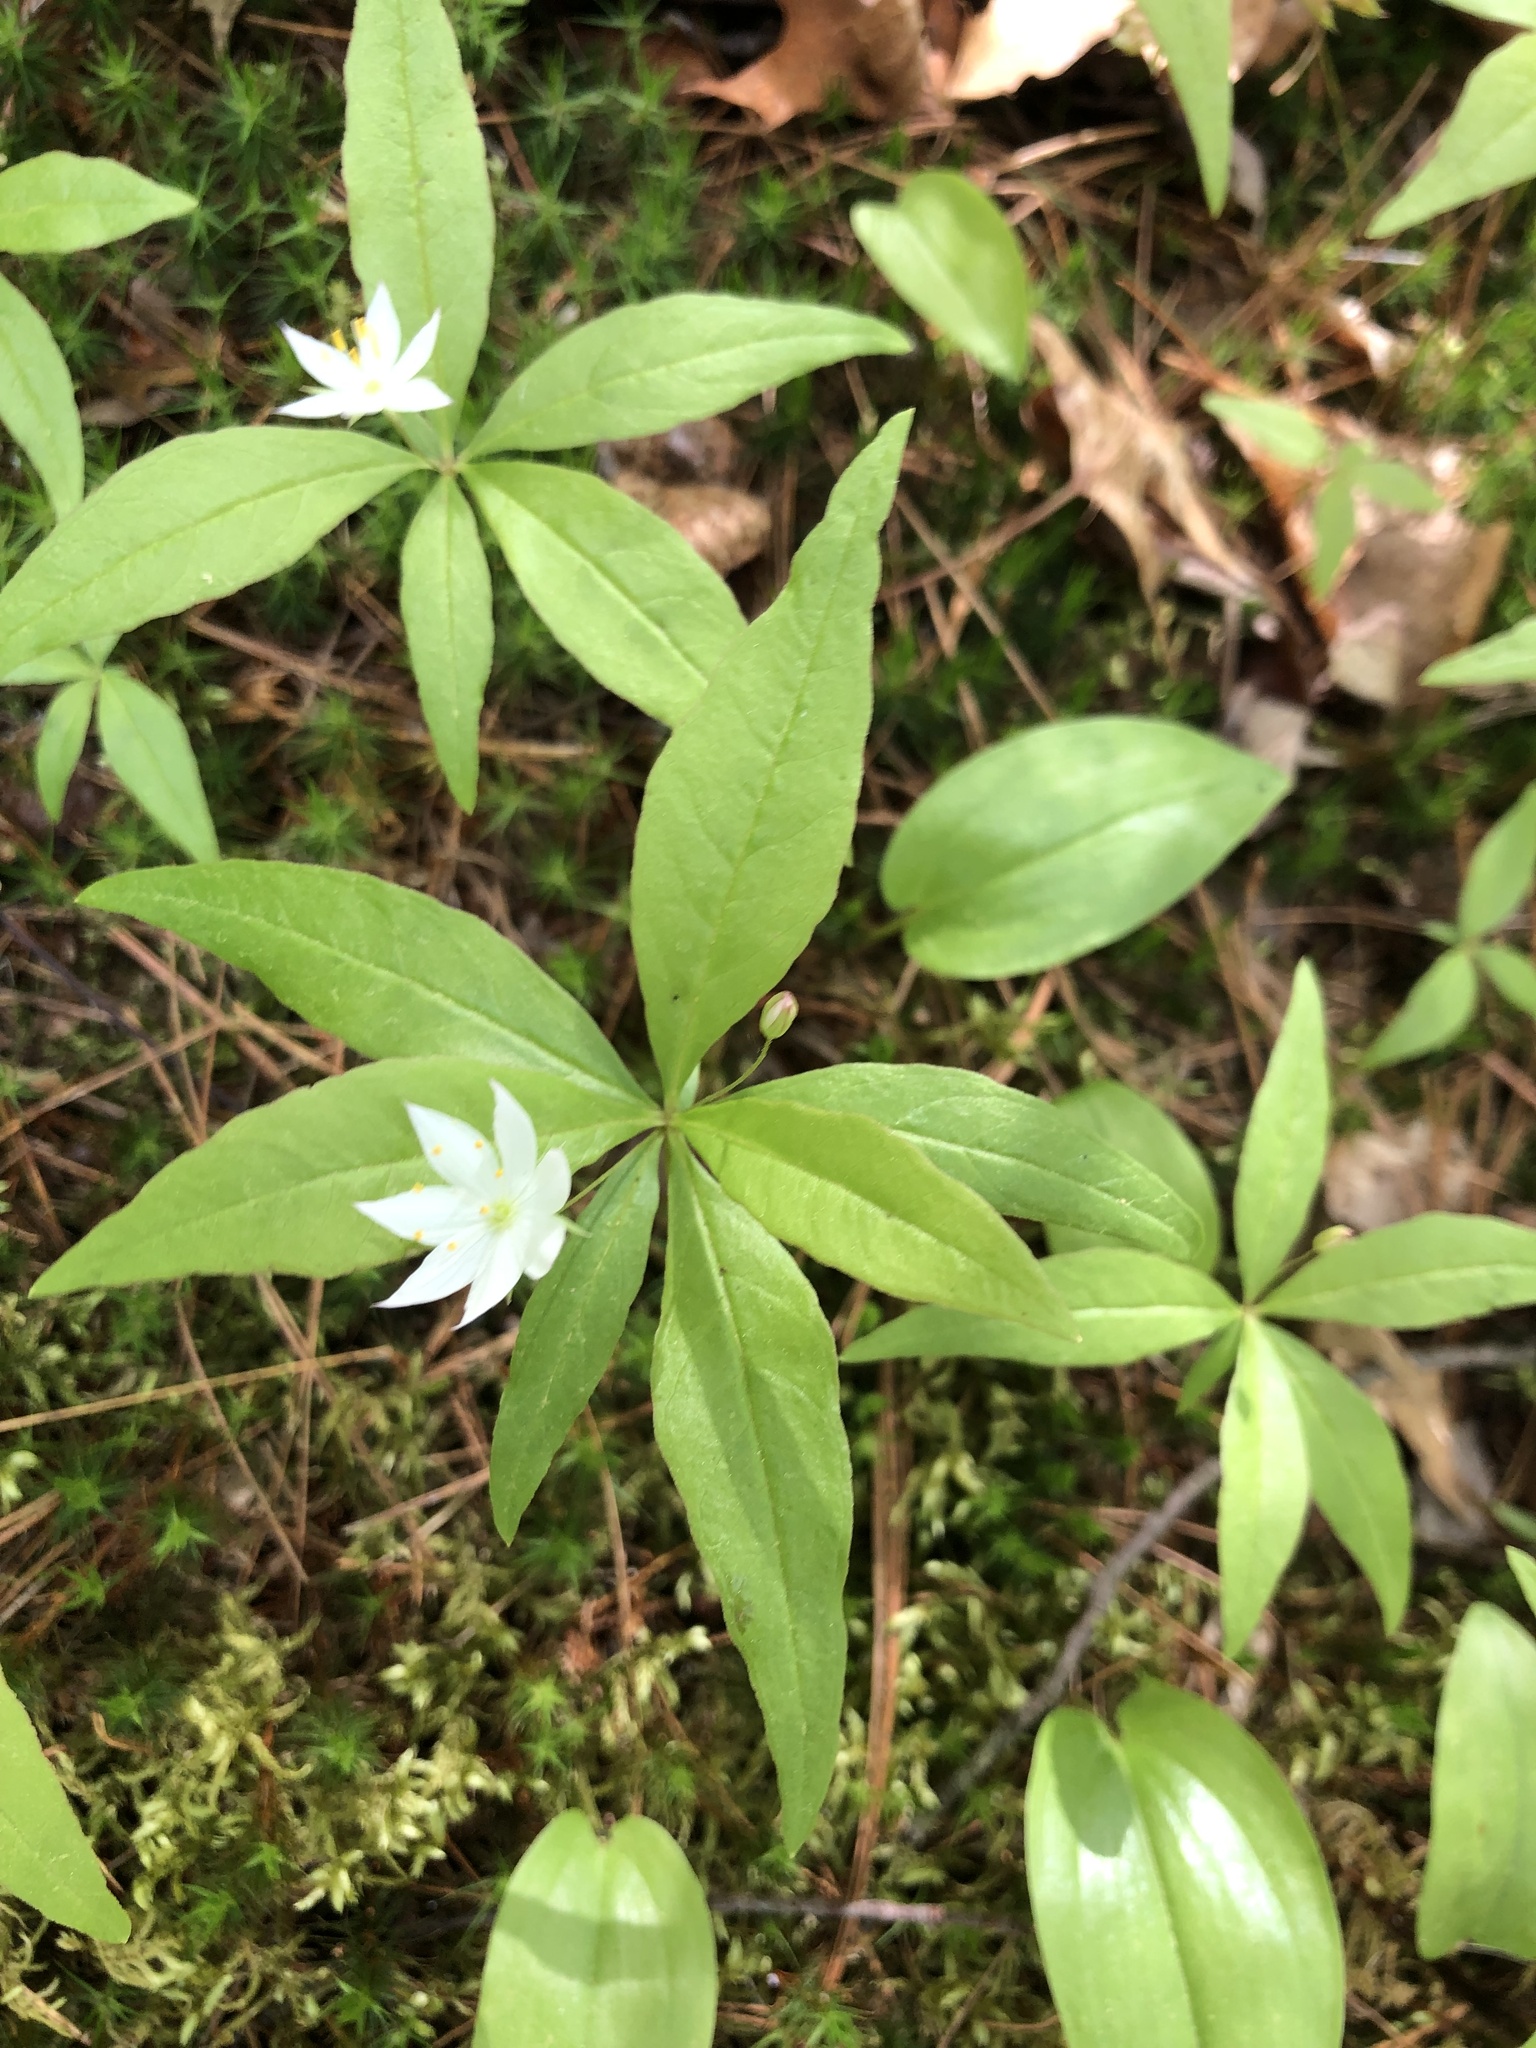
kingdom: Plantae
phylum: Tracheophyta
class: Magnoliopsida
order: Ericales
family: Primulaceae
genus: Lysimachia
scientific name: Lysimachia borealis
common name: American starflower
